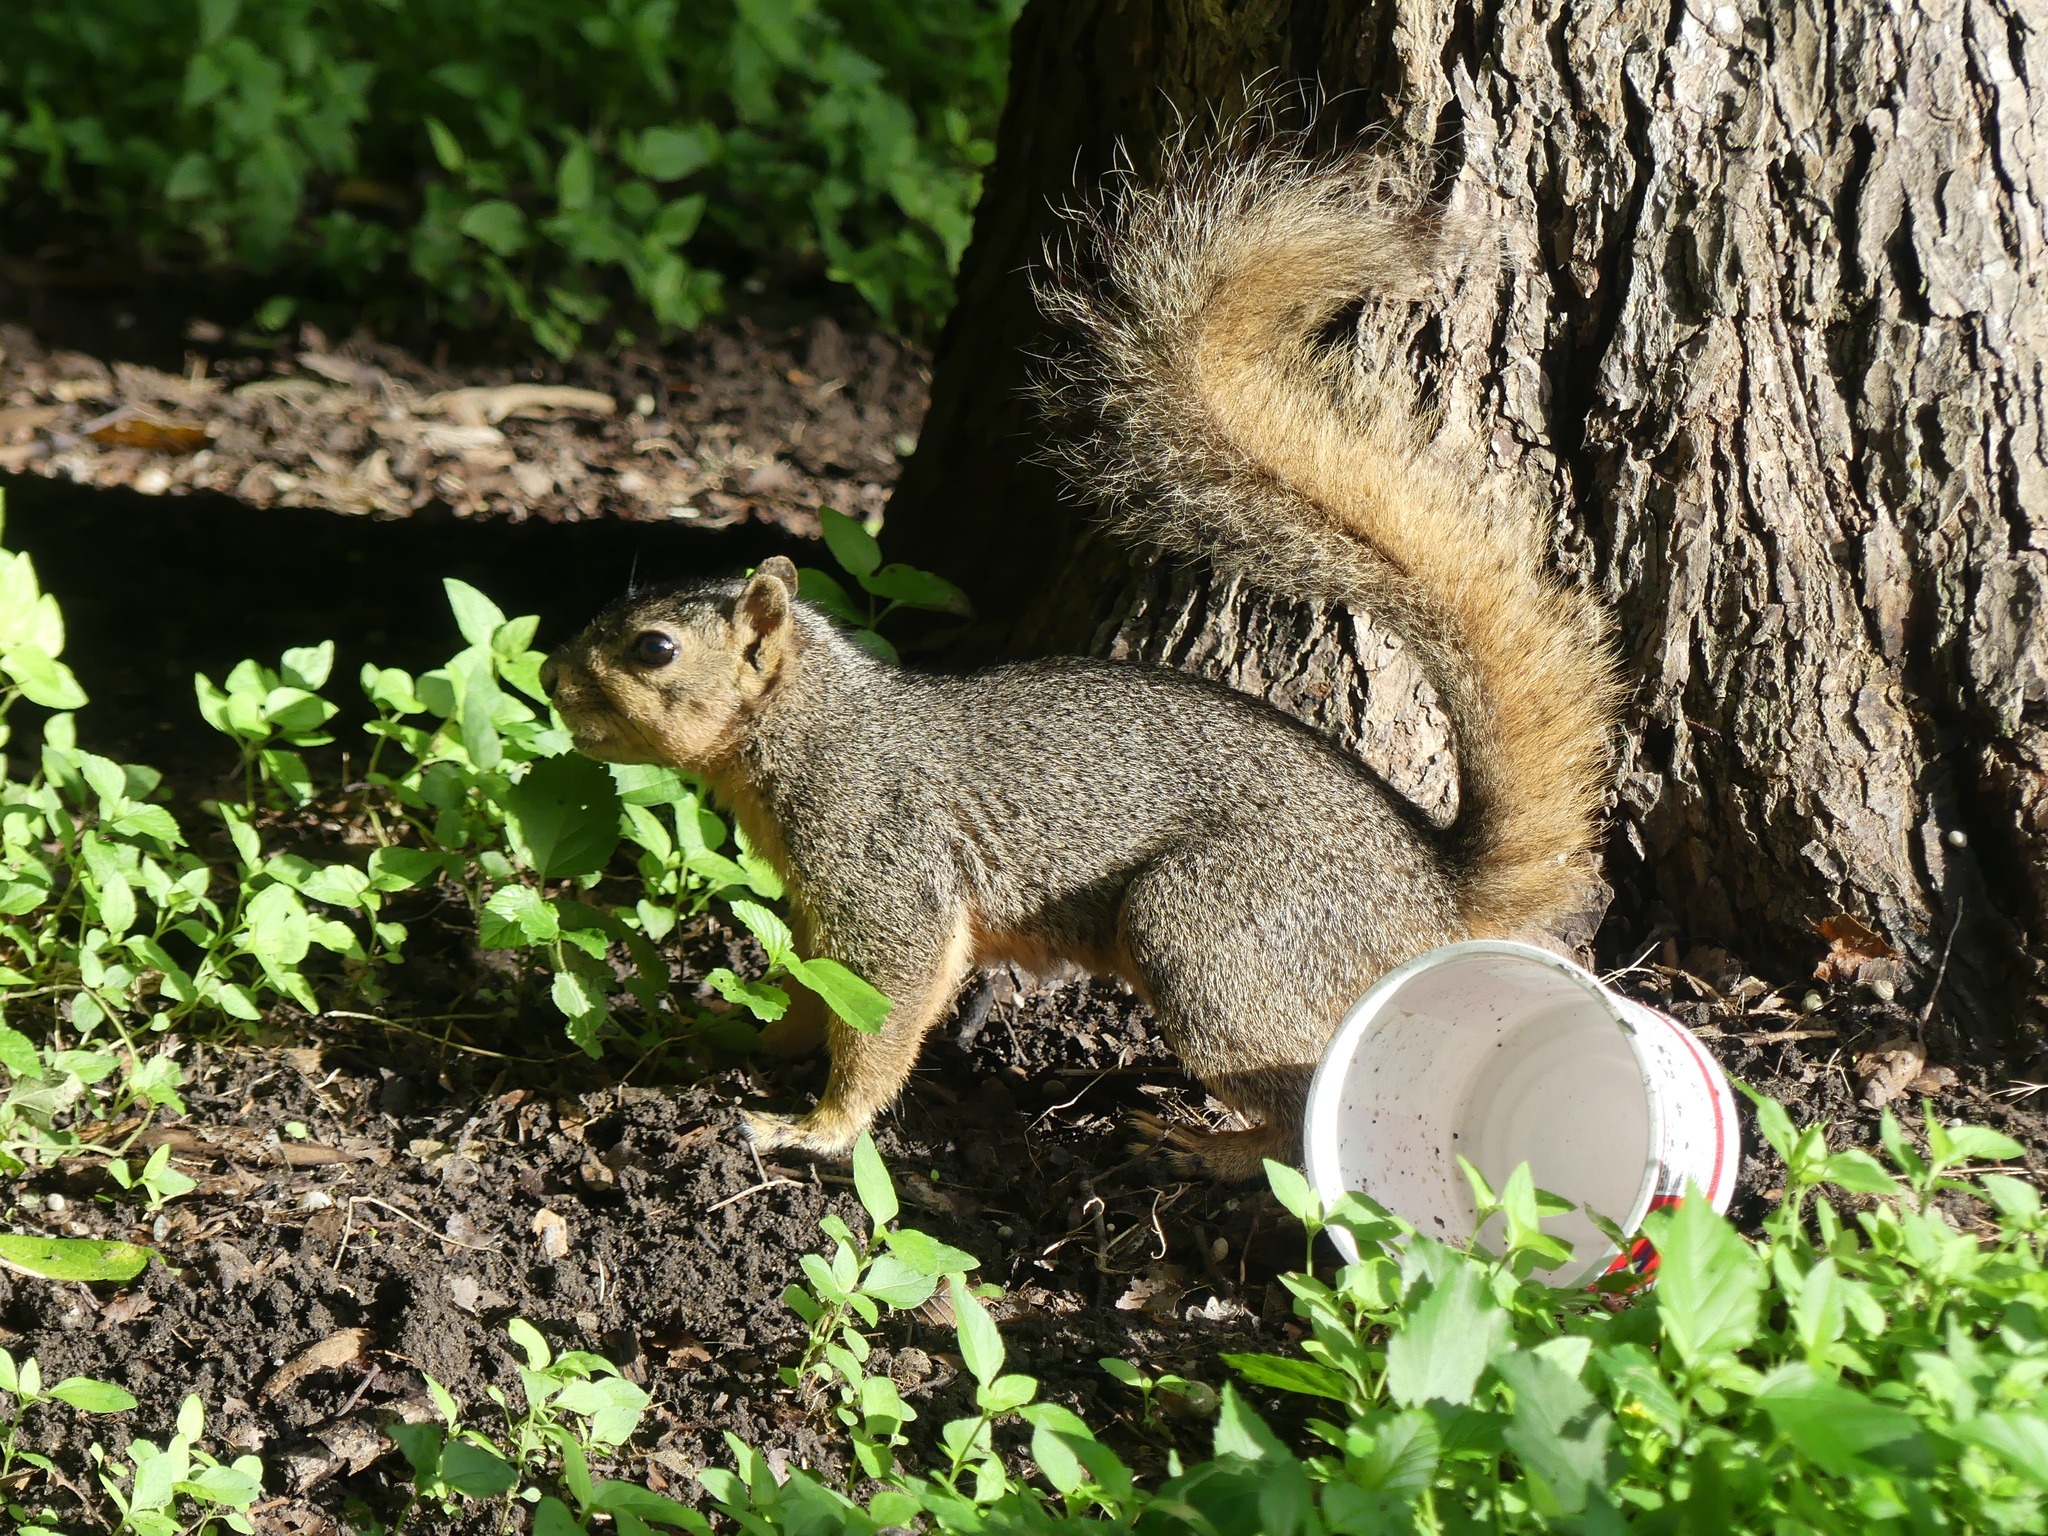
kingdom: Animalia
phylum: Chordata
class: Mammalia
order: Rodentia
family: Sciuridae
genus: Sciurus
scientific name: Sciurus niger
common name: Fox squirrel
